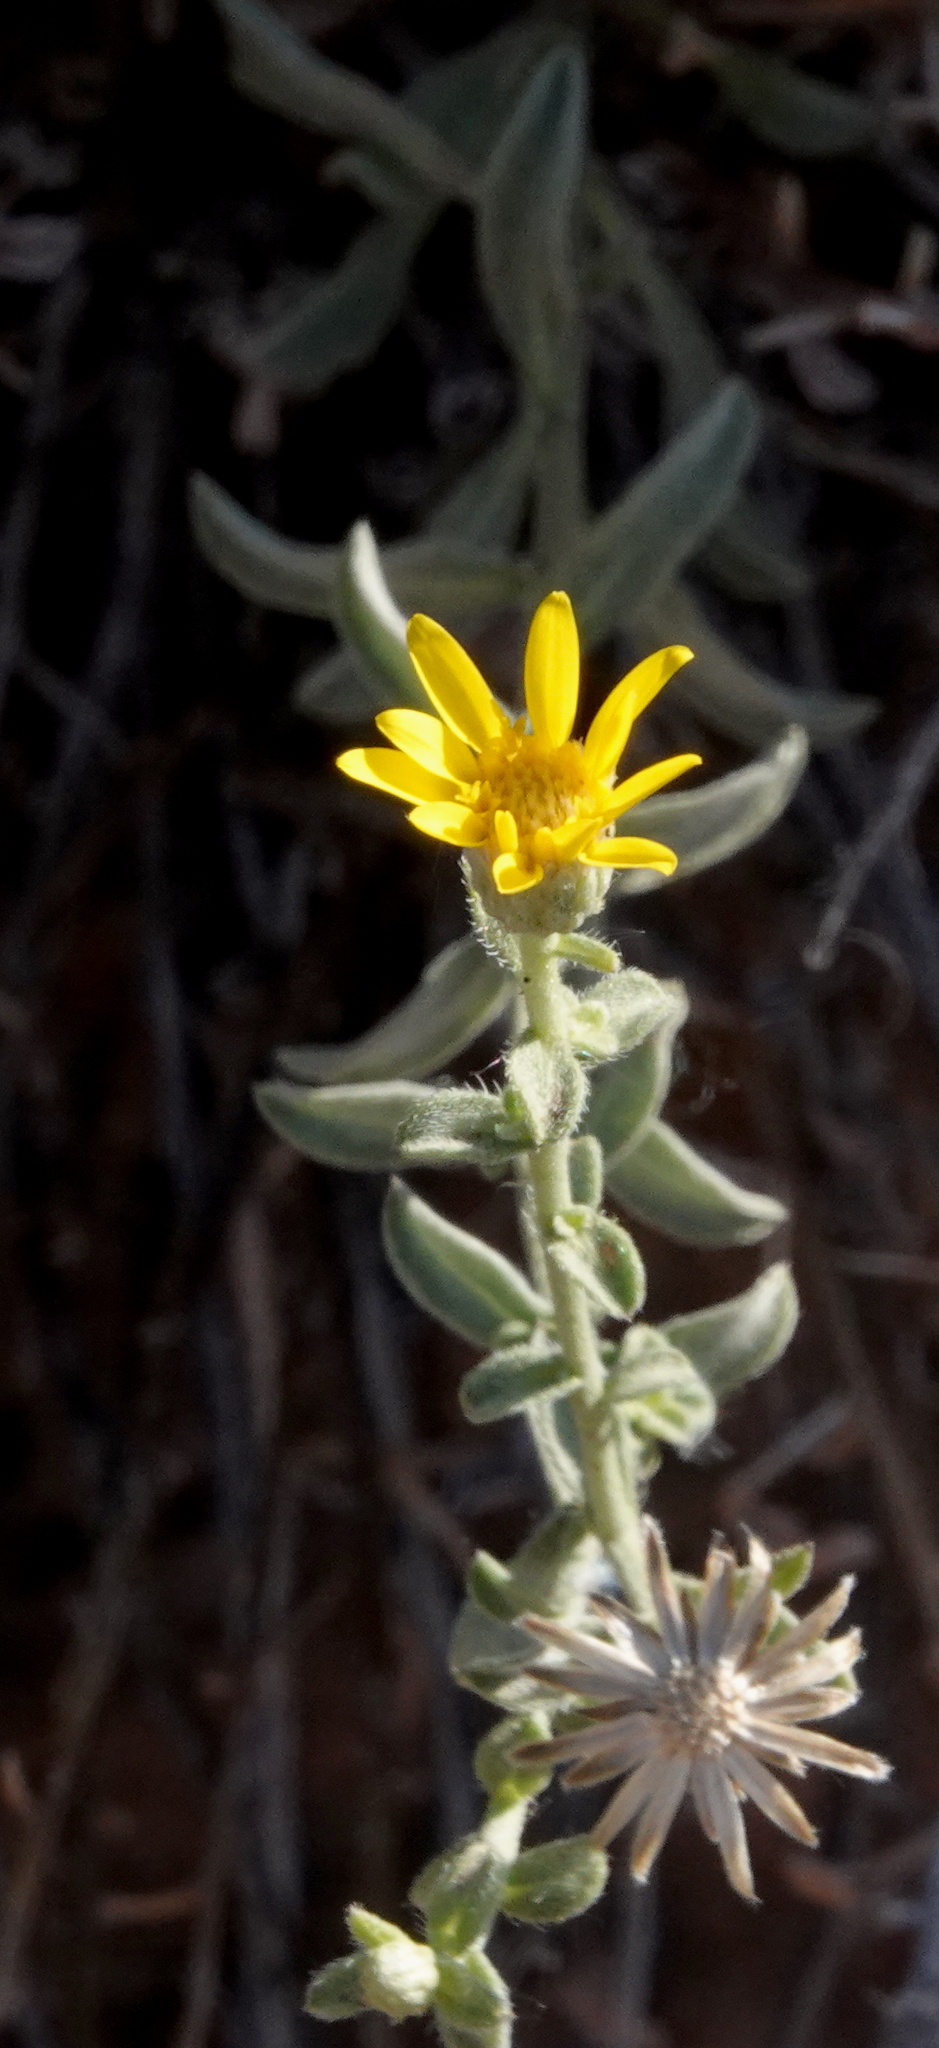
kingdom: Plantae
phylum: Tracheophyta
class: Magnoliopsida
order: Asterales
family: Asteraceae
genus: Heterotheca
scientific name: Heterotheca zionensis
